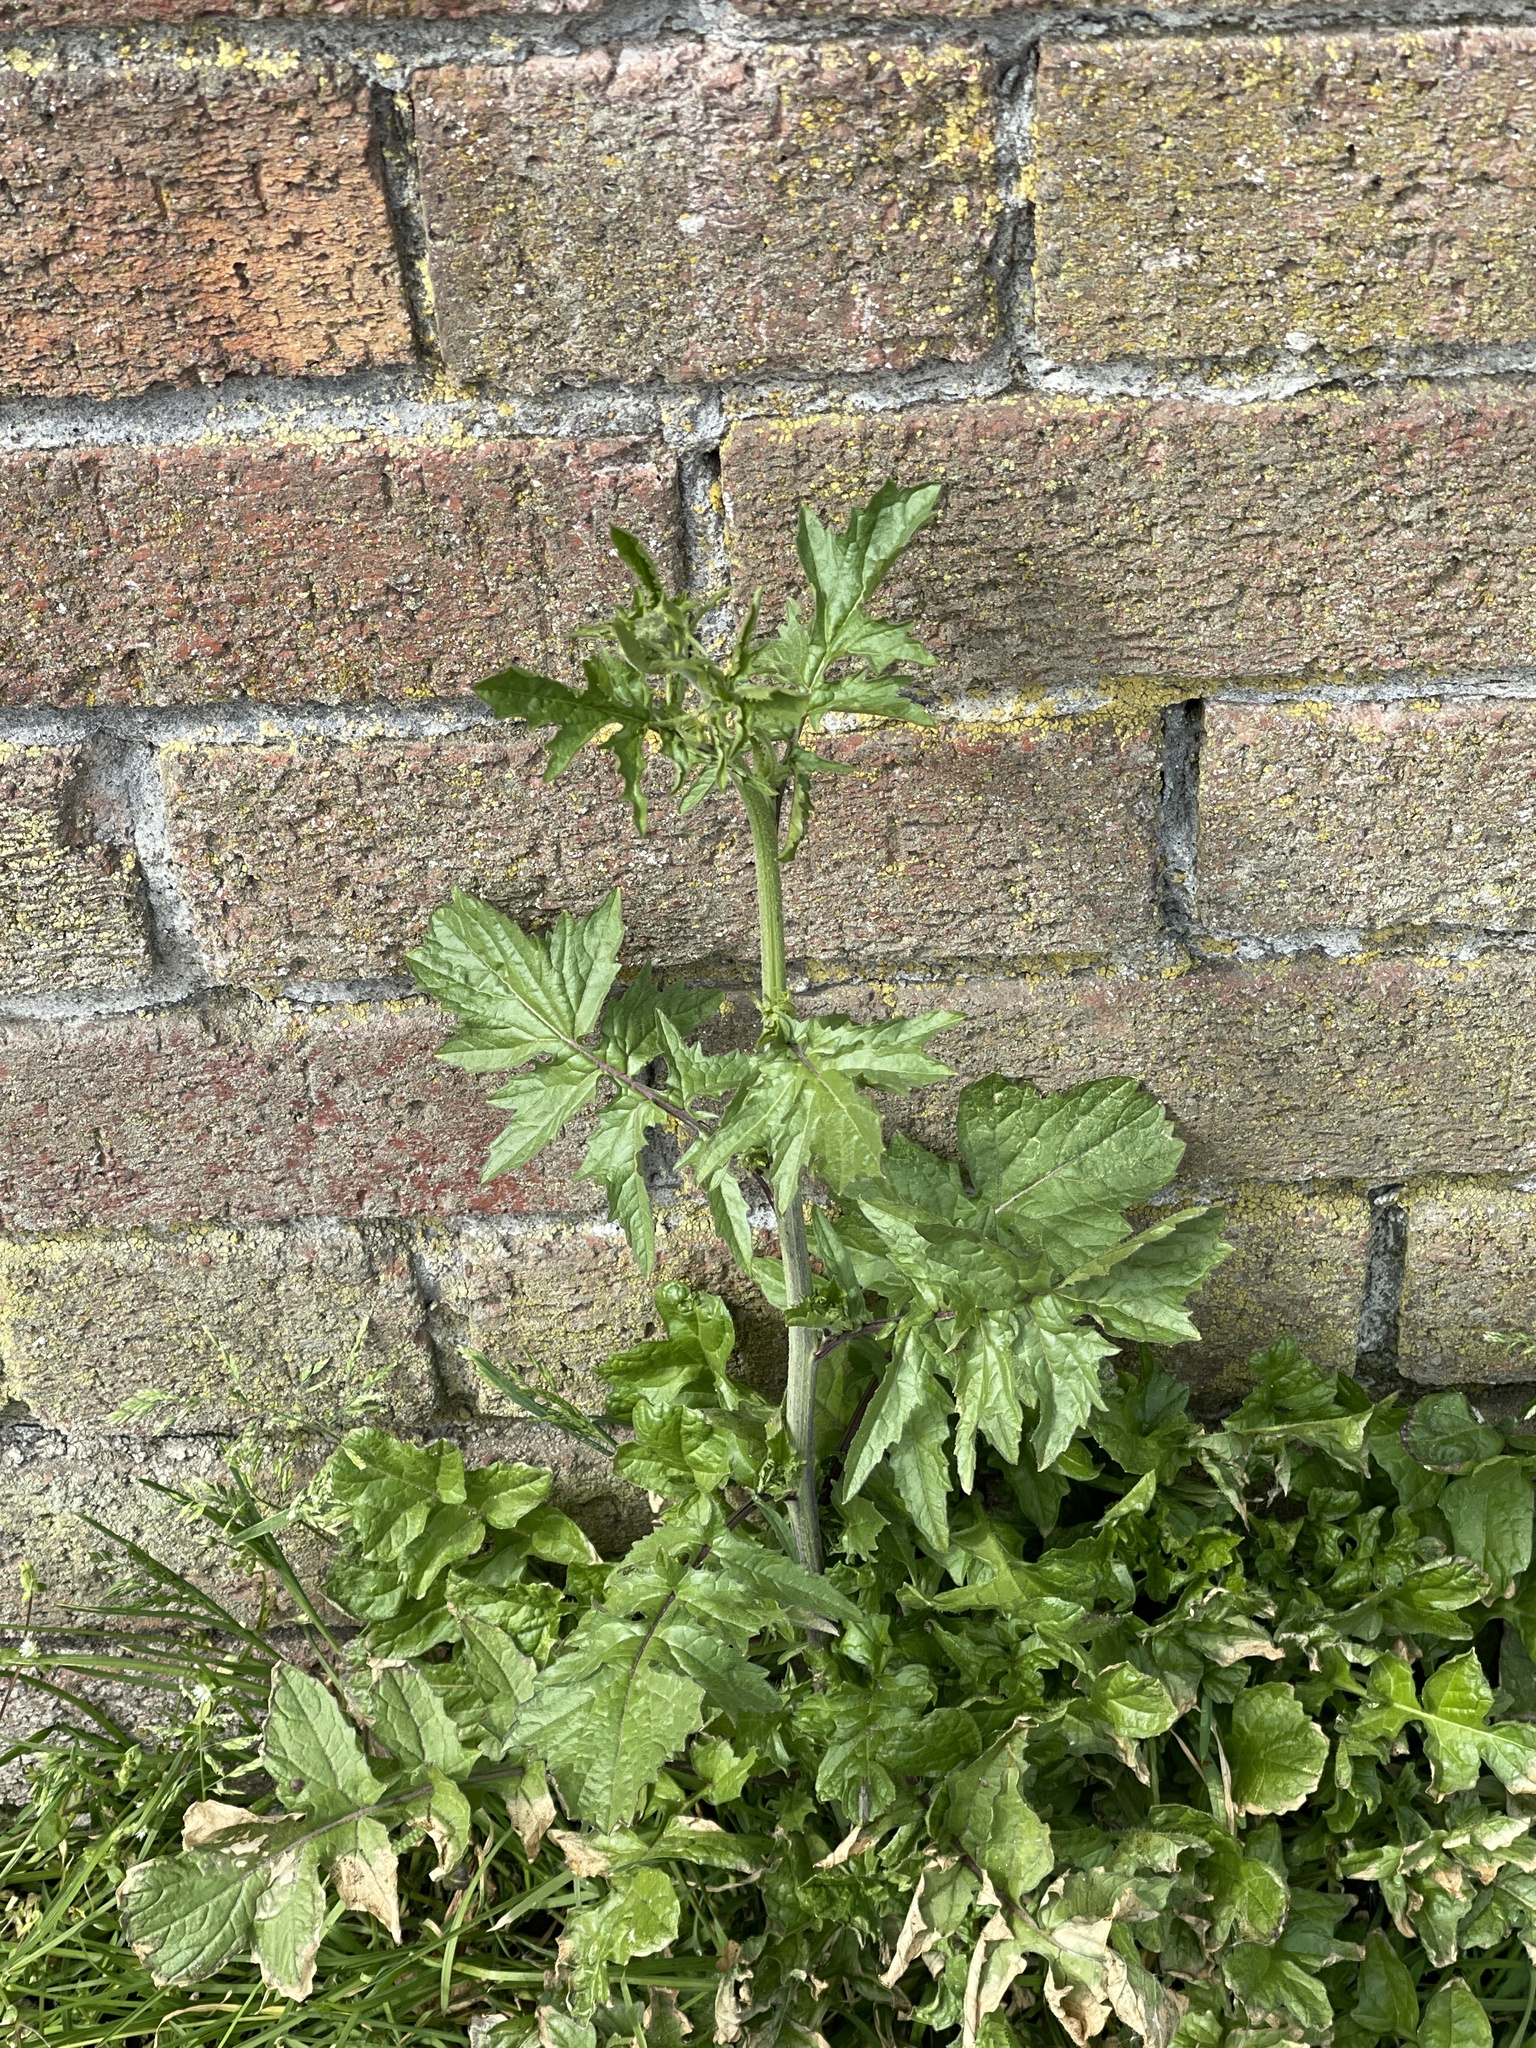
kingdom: Plantae
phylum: Tracheophyta
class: Magnoliopsida
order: Brassicales
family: Brassicaceae
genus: Sisymbrium
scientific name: Sisymbrium officinale
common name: Hedge mustard
